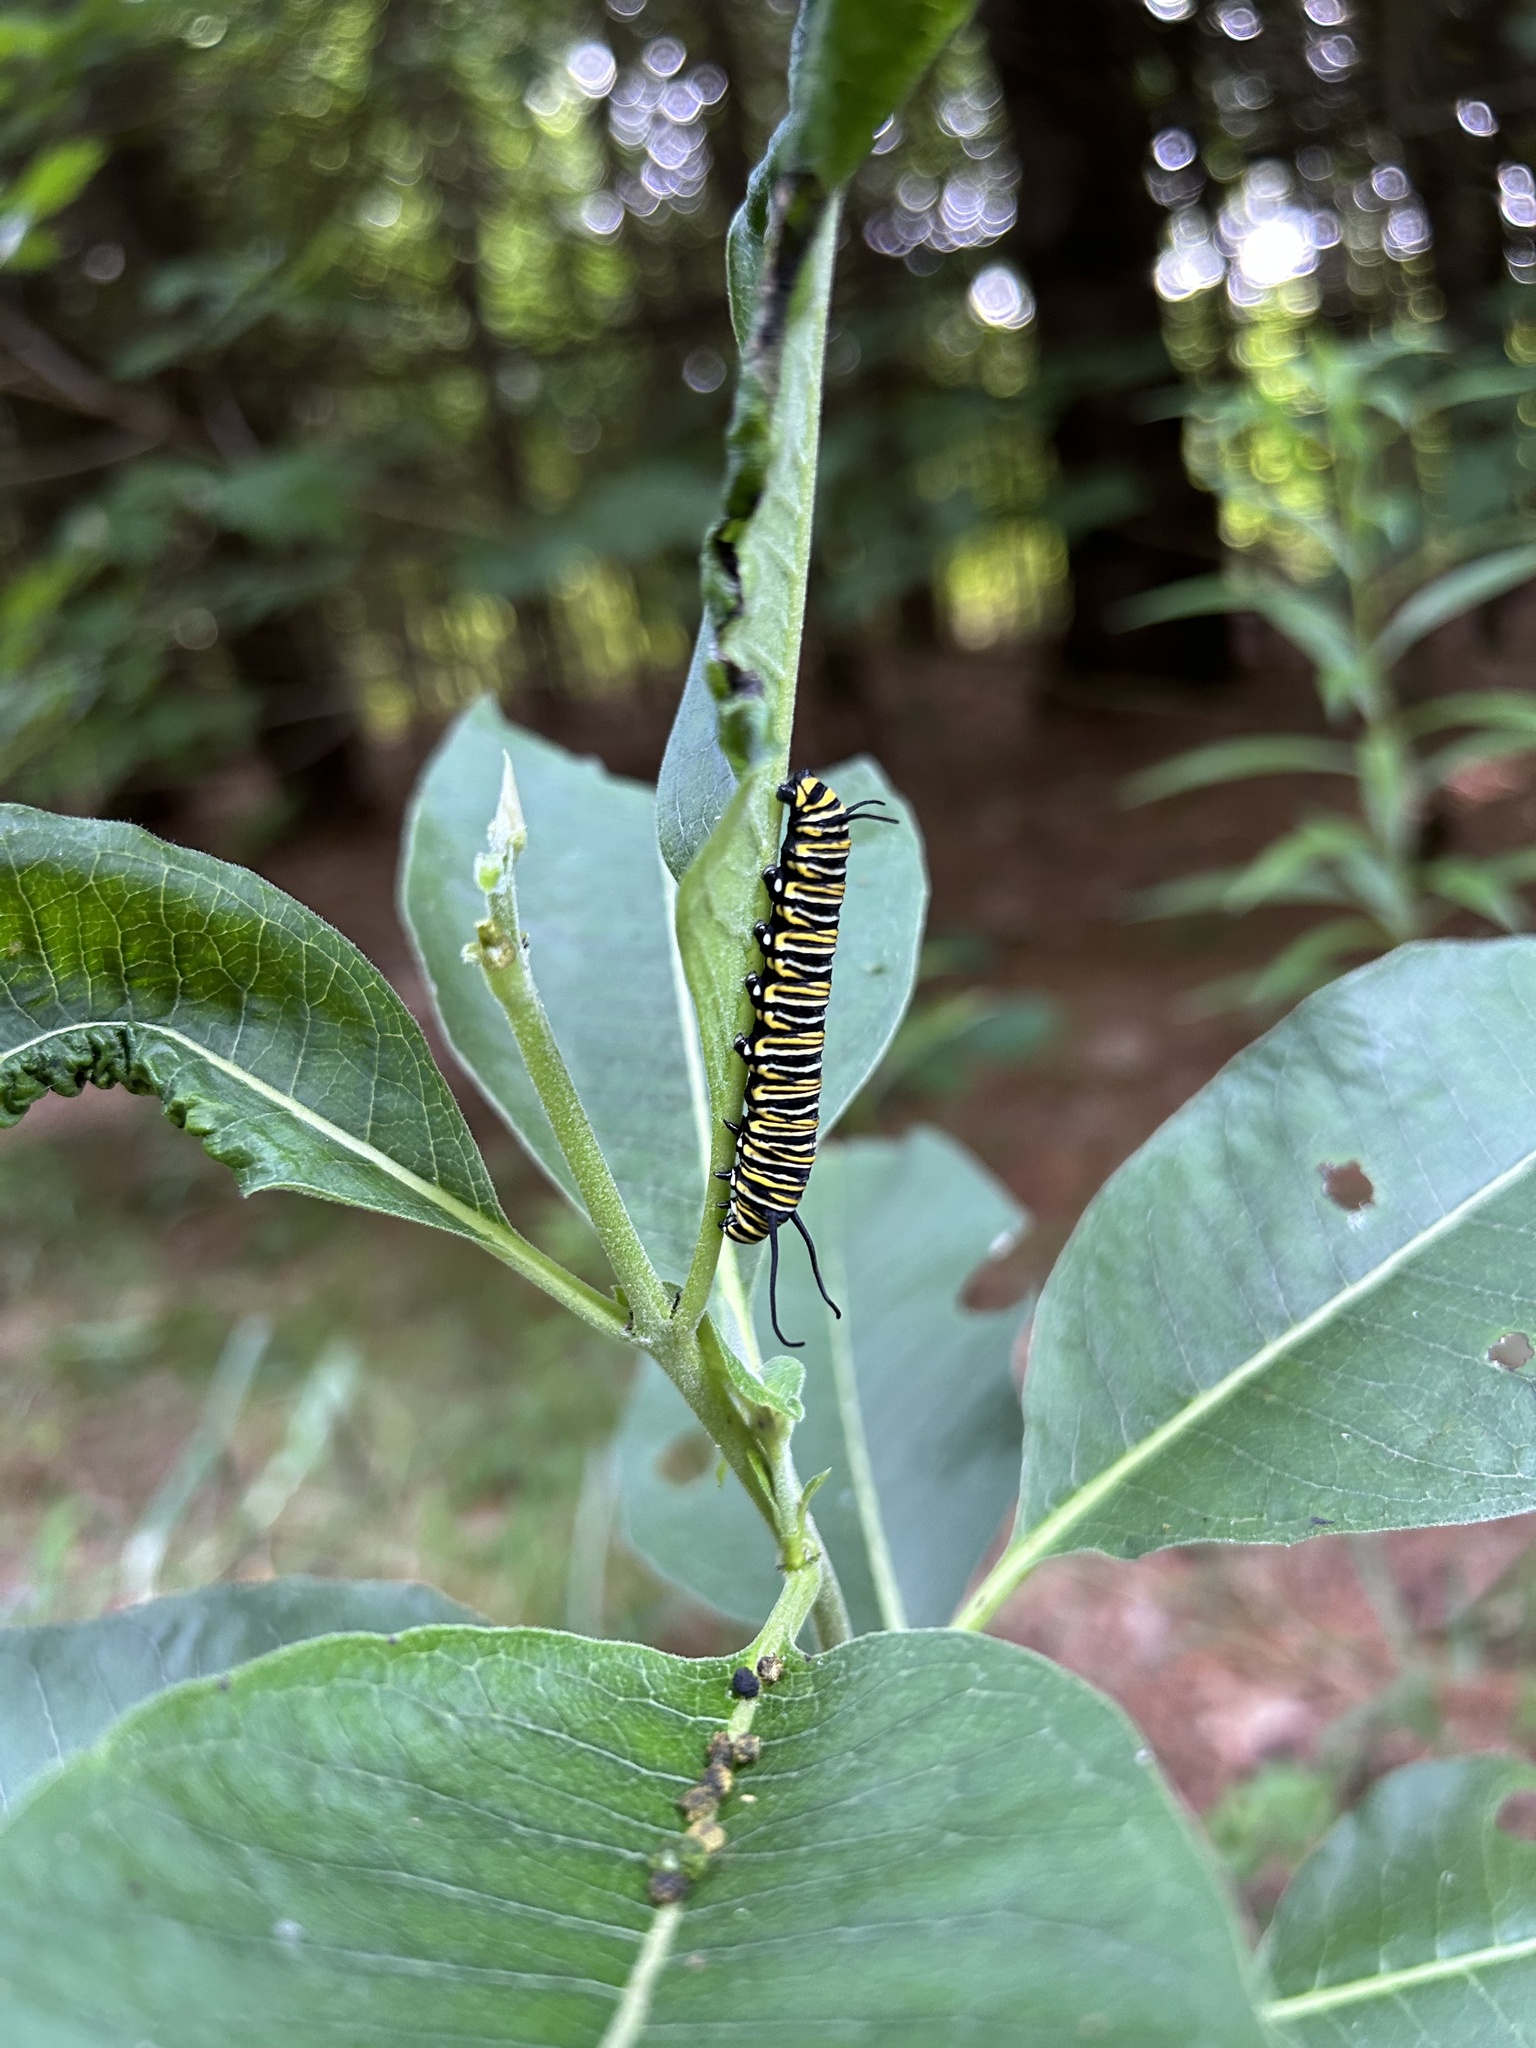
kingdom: Animalia
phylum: Arthropoda
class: Insecta
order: Lepidoptera
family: Nymphalidae
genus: Danaus
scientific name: Danaus plexippus
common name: Monarch
